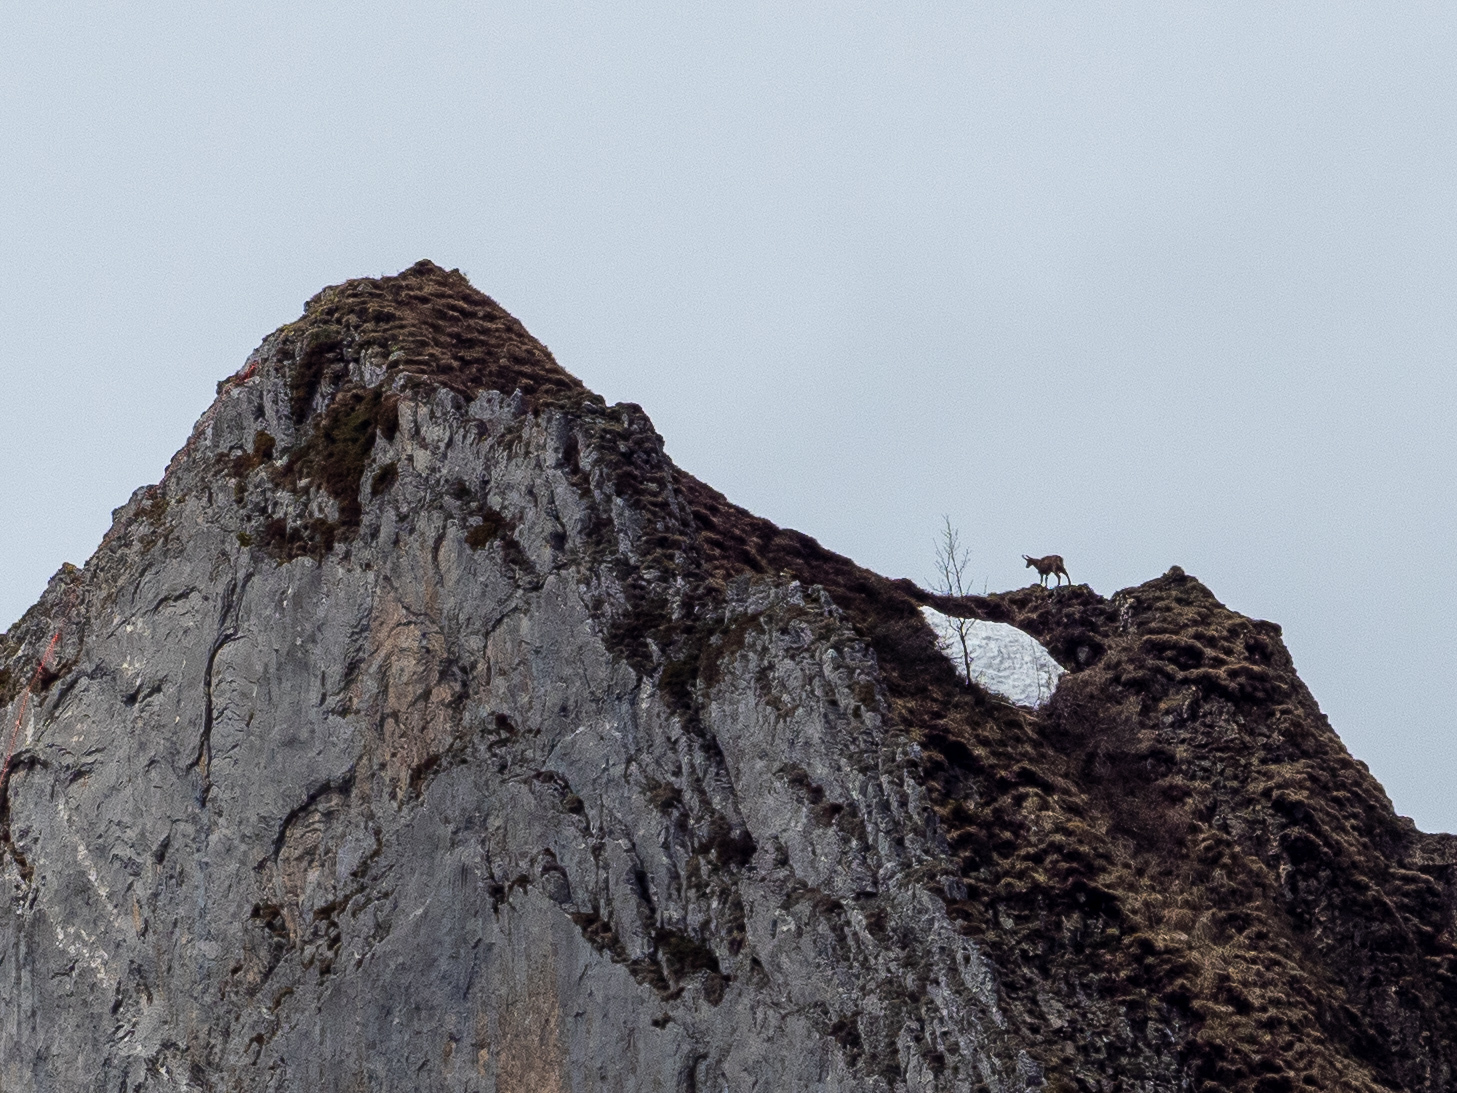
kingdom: Animalia
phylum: Chordata
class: Mammalia
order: Artiodactyla
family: Bovidae
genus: Rupicapra
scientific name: Rupicapra rupicapra
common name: Chamois
